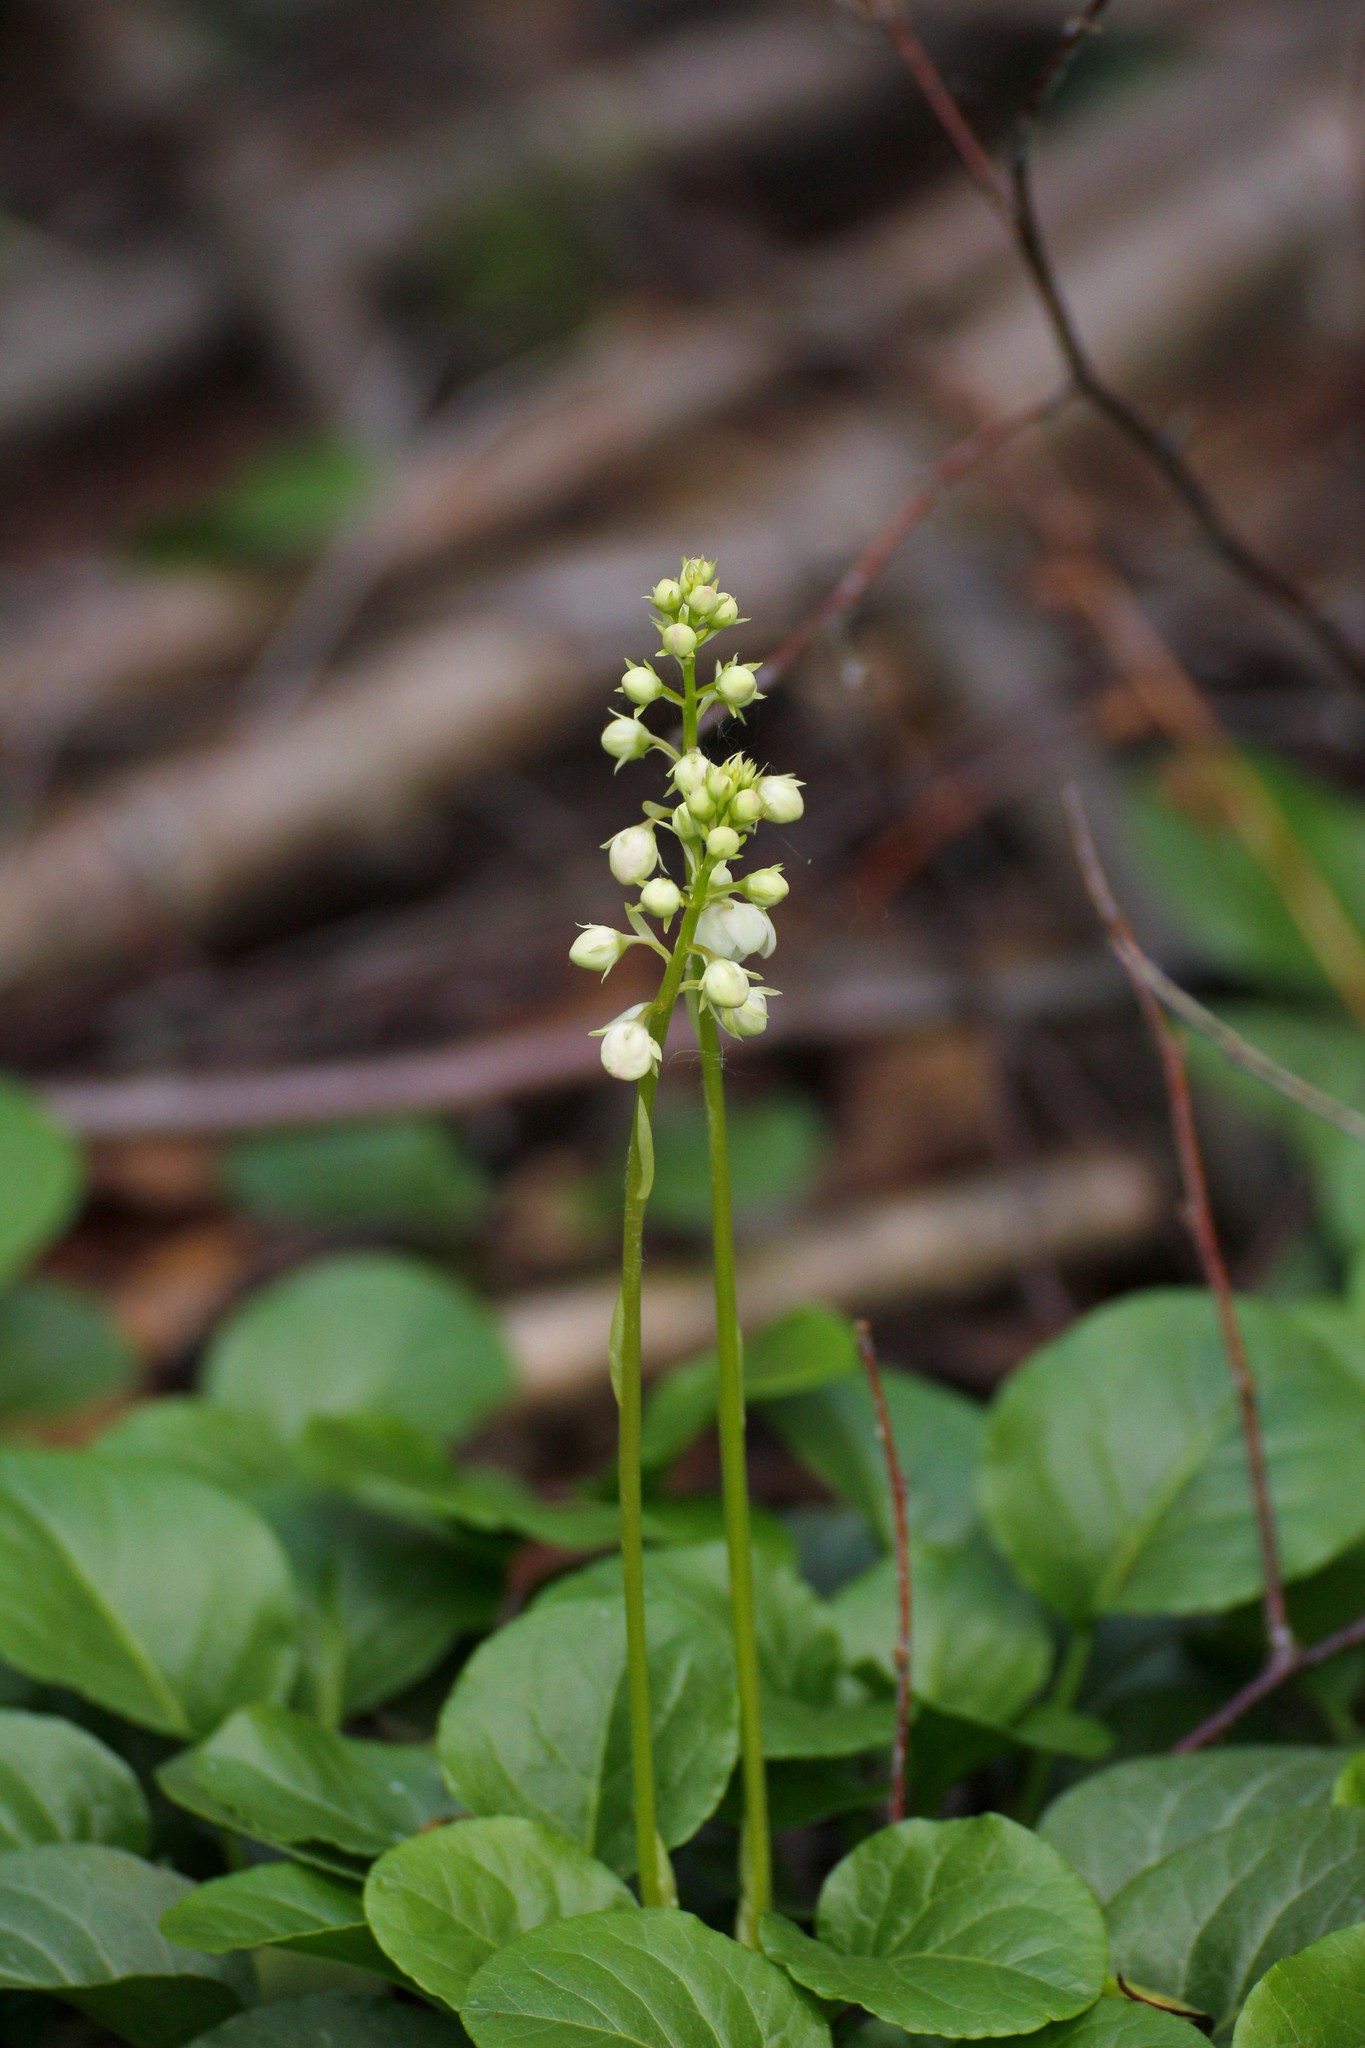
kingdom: Plantae
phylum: Tracheophyta
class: Magnoliopsida
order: Ericales
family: Ericaceae
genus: Pyrola
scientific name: Pyrola rotundifolia
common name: Round-leaved wintergreen
